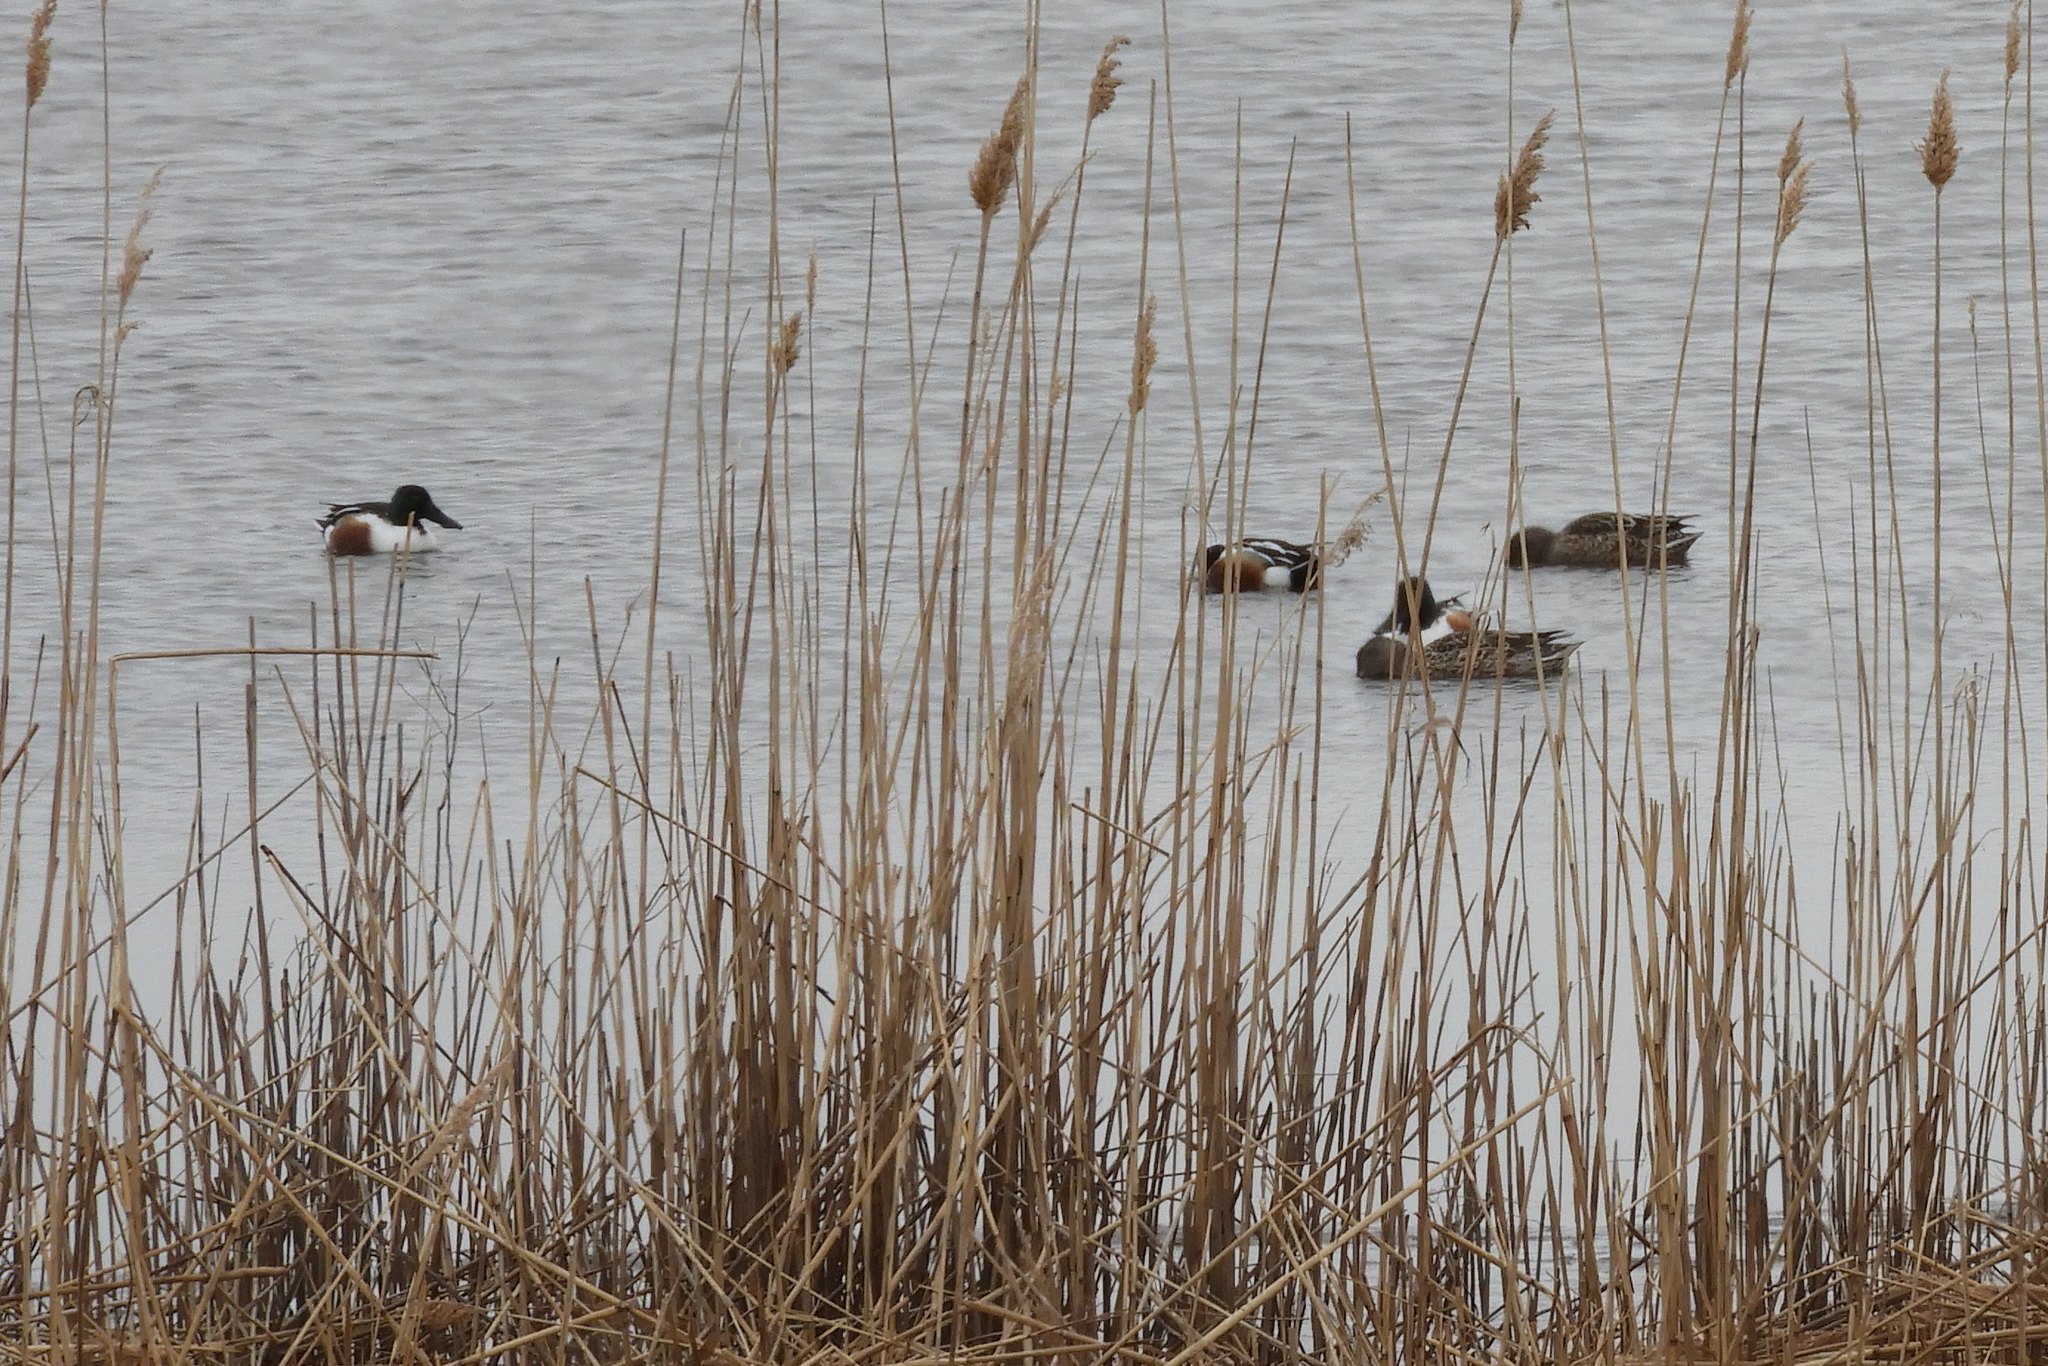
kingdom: Animalia
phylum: Chordata
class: Aves
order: Anseriformes
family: Anatidae
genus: Spatula
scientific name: Spatula clypeata
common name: Northern shoveler
